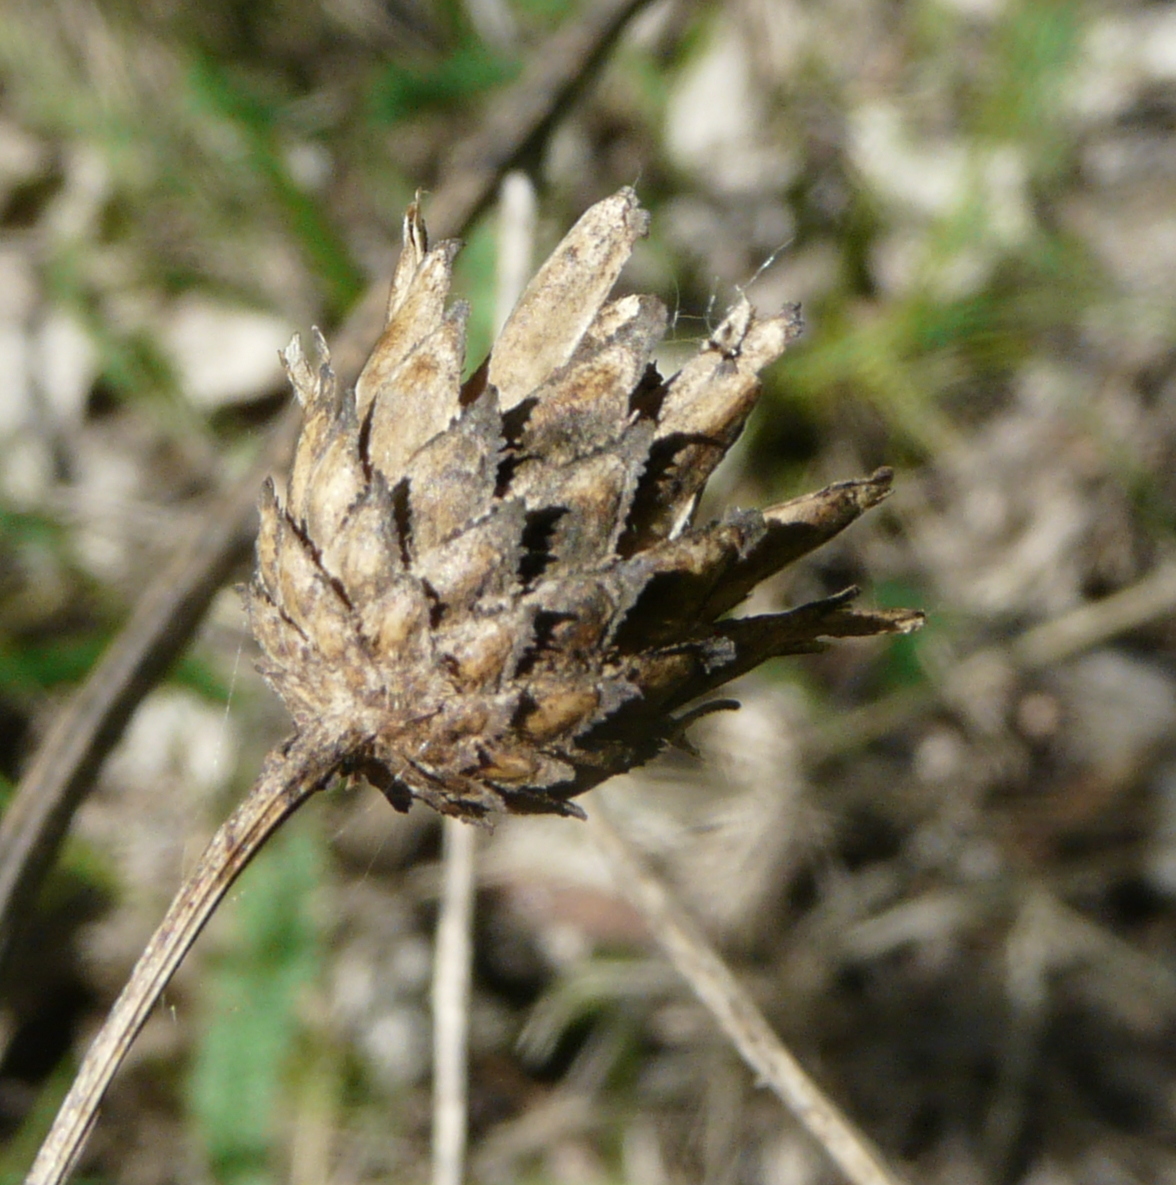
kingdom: Plantae
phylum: Tracheophyta
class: Magnoliopsida
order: Asterales
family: Asteraceae
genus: Centaurea
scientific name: Centaurea scabiosa
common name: Greater knapweed
